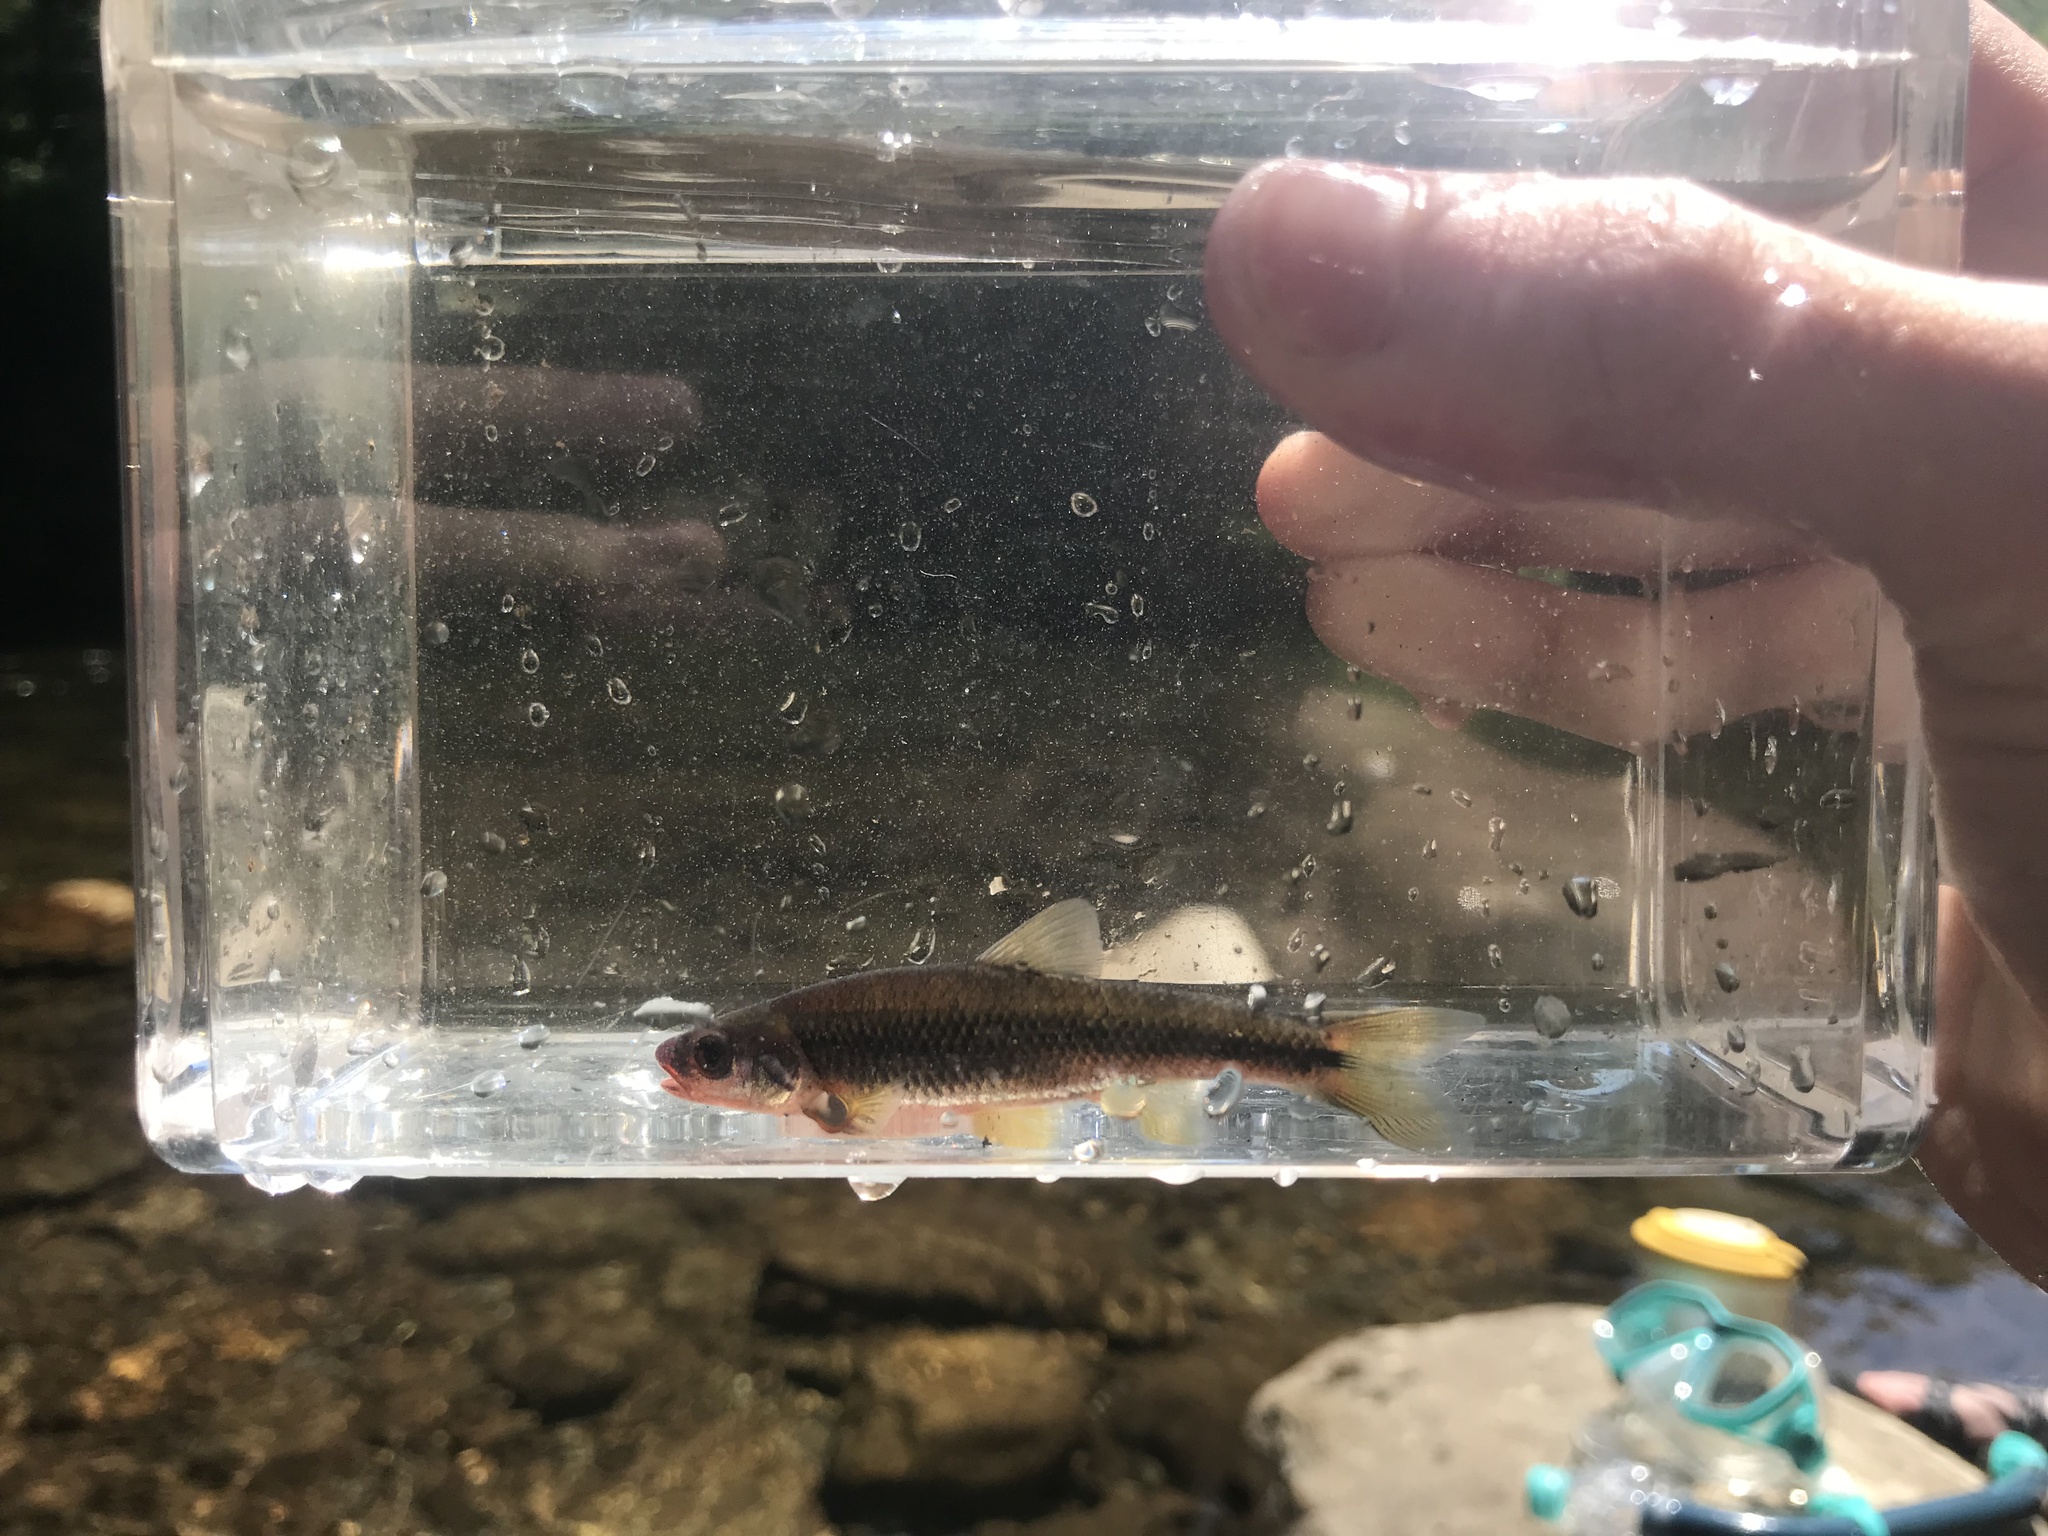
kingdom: Animalia
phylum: Chordata
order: Cypriniformes
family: Cyprinidae
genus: Notropis
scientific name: Notropis
